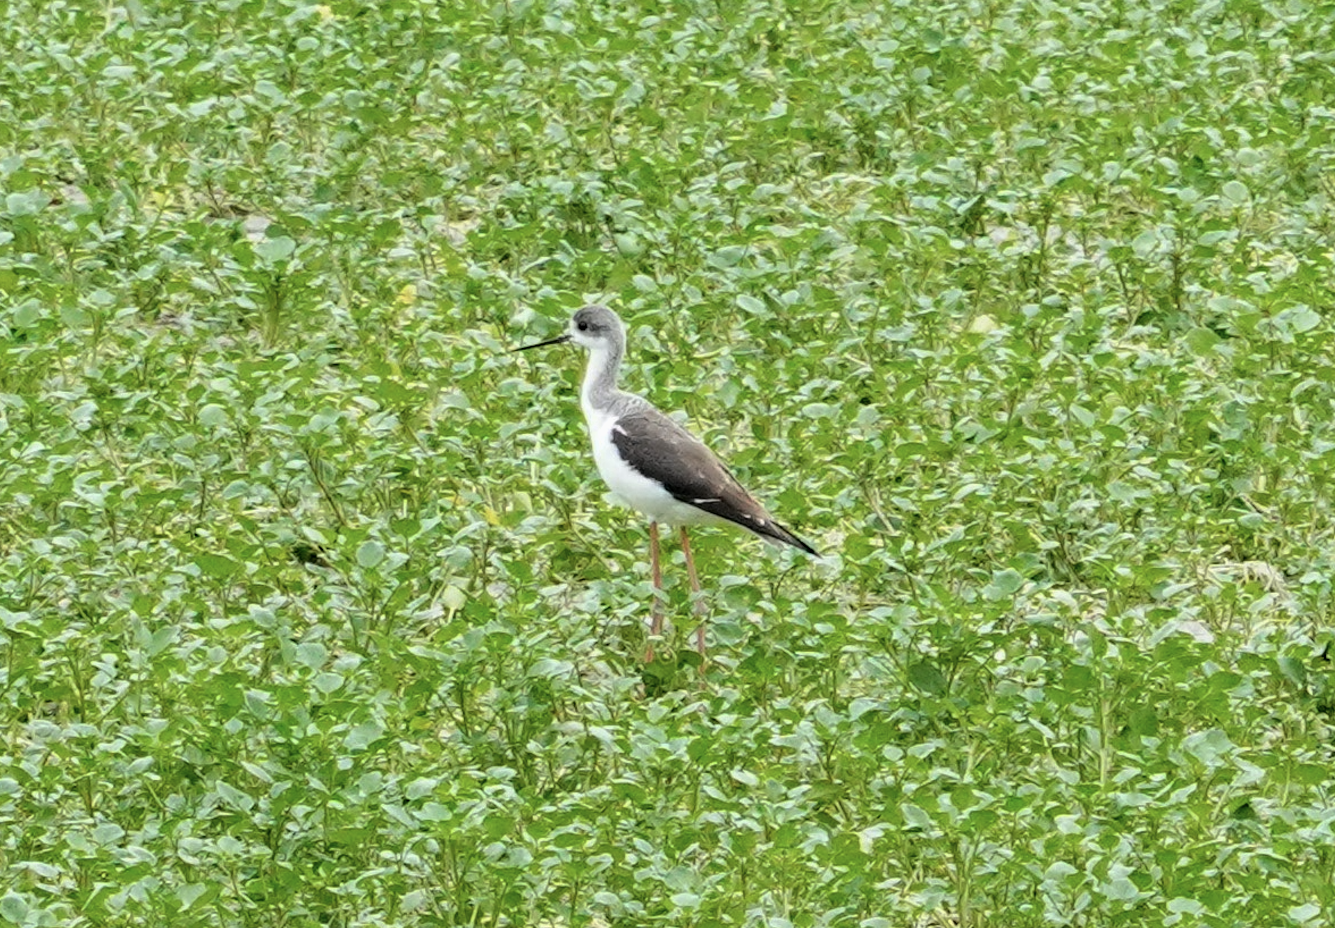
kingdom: Animalia
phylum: Chordata
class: Aves
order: Charadriiformes
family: Recurvirostridae
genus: Himantopus
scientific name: Himantopus himantopus
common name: Black-winged stilt
